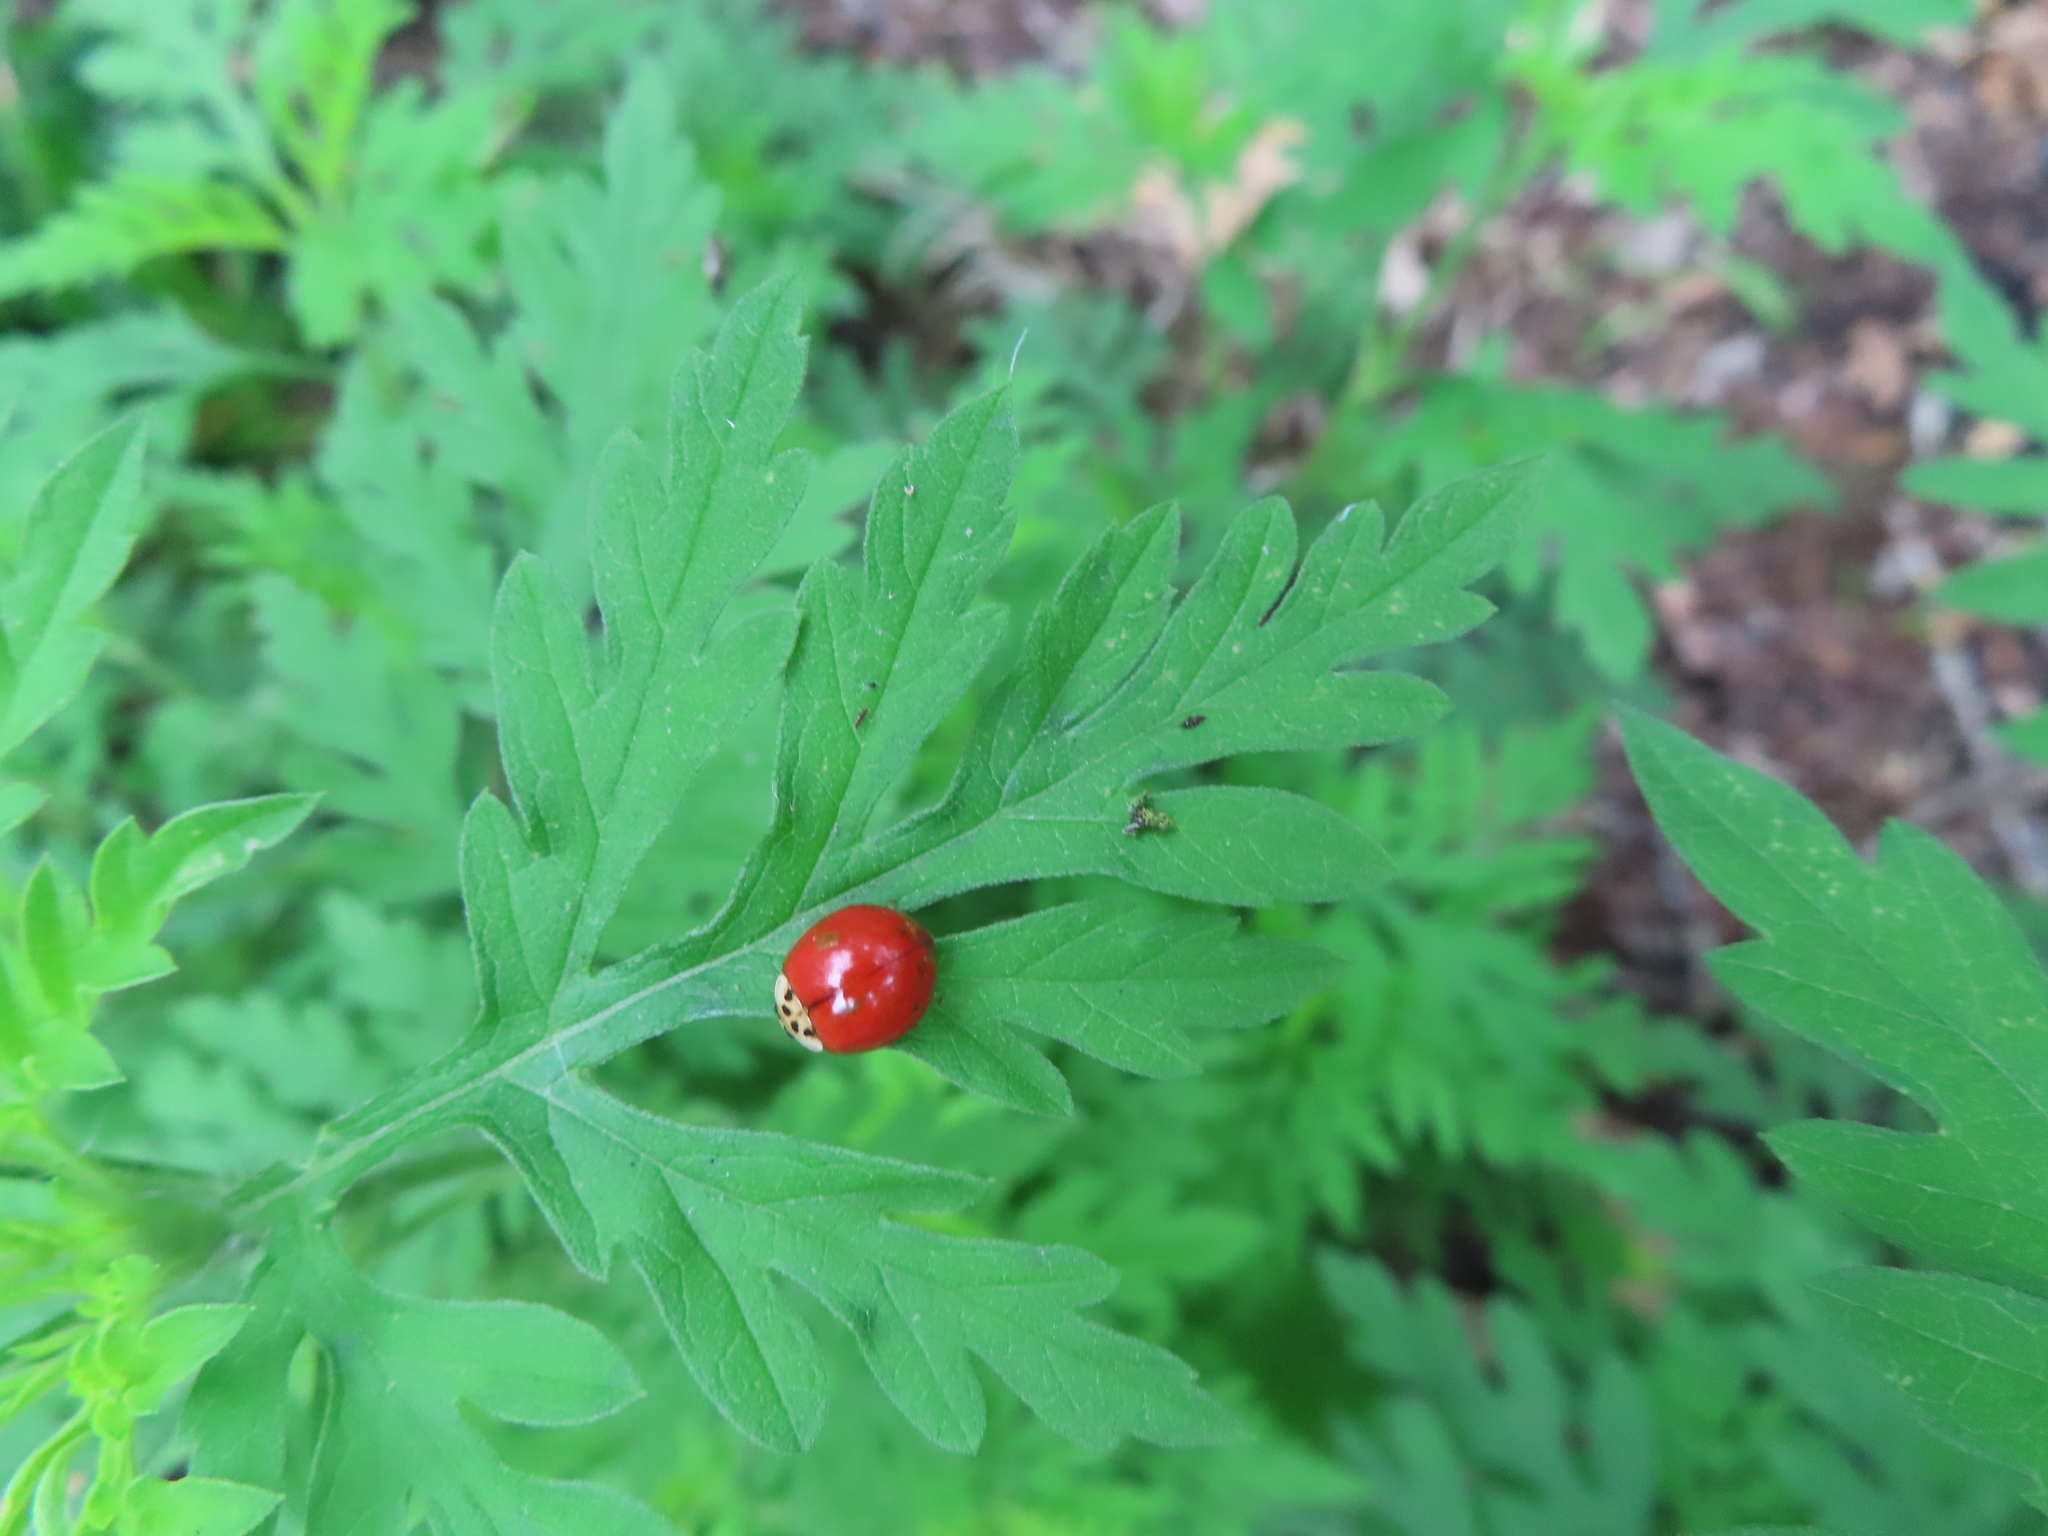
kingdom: Animalia
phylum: Arthropoda
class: Insecta
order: Coleoptera
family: Coccinellidae
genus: Harmonia
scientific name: Harmonia axyridis
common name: Harlequin ladybird
